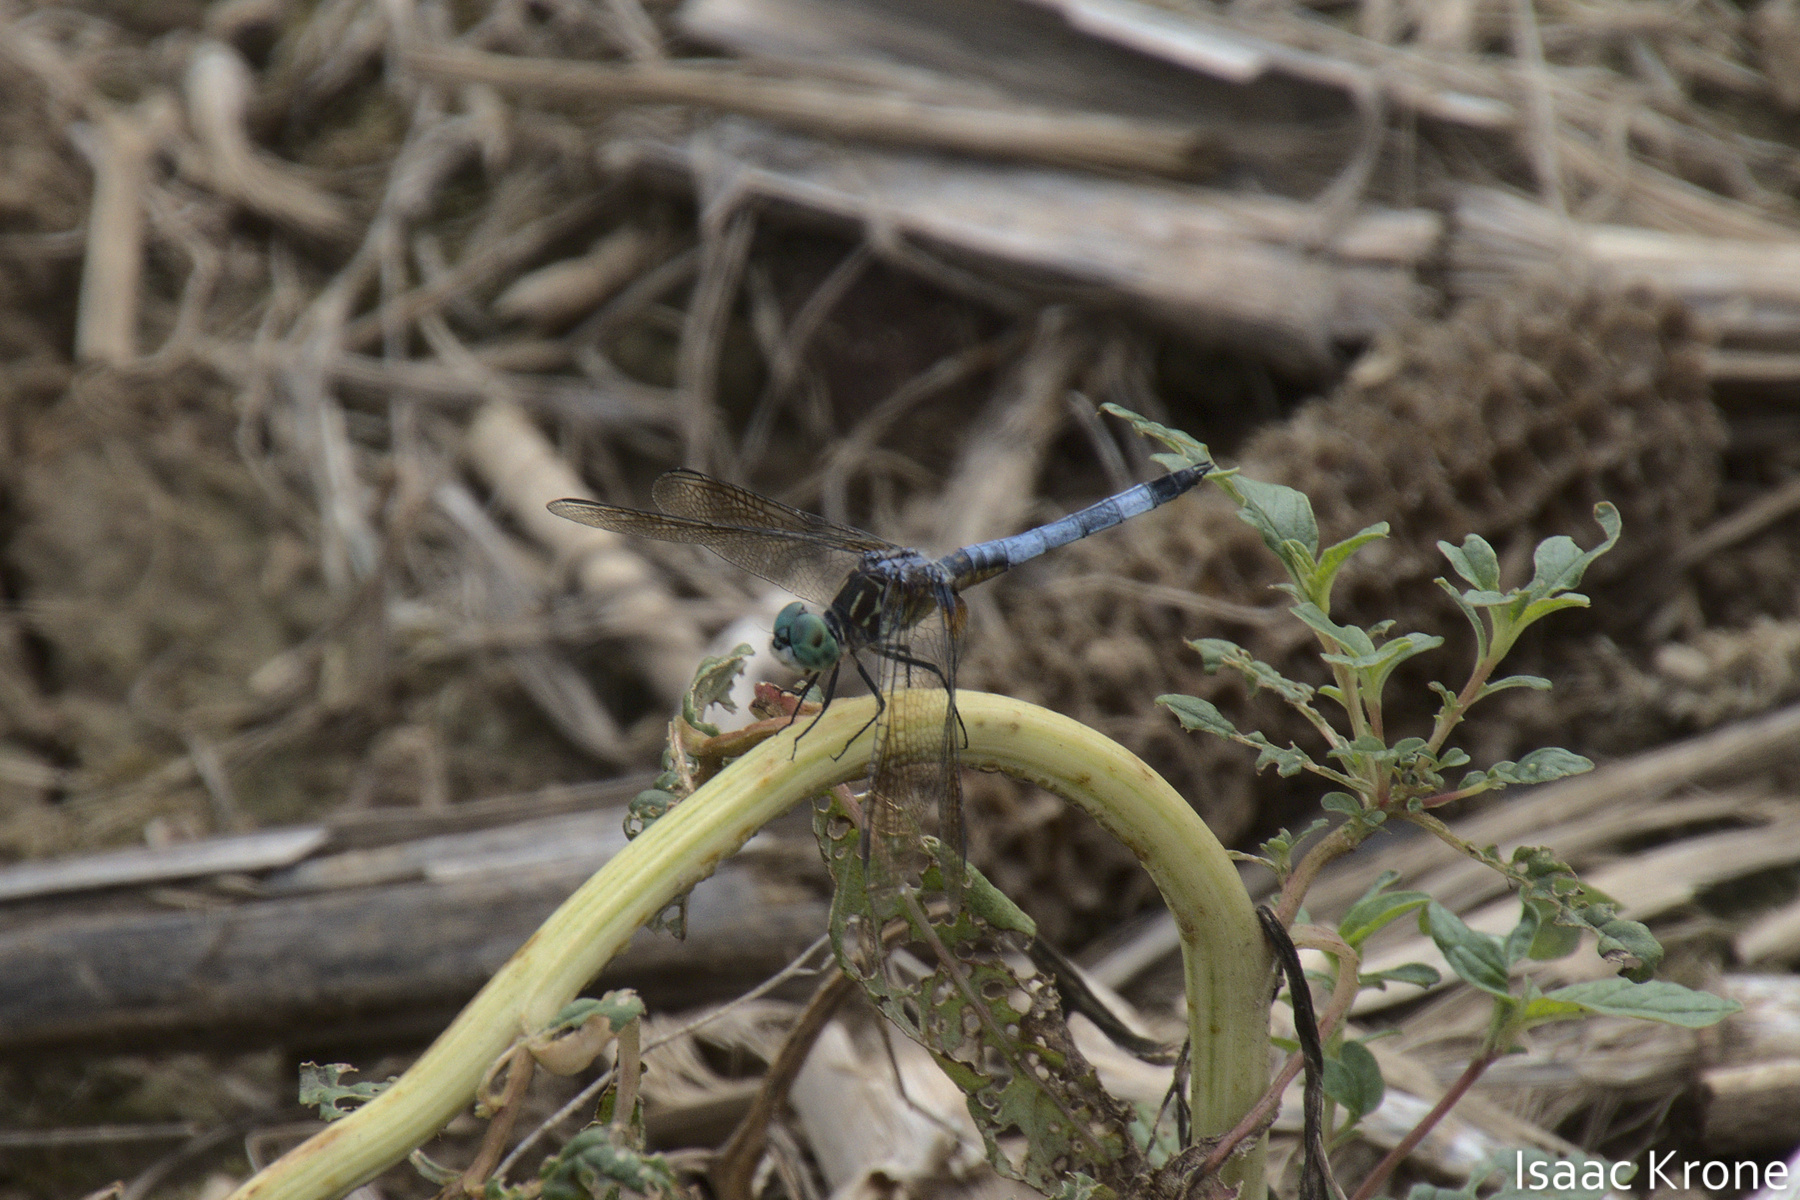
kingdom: Animalia
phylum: Arthropoda
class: Insecta
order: Odonata
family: Libellulidae
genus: Pachydiplax
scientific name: Pachydiplax longipennis
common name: Blue dasher
